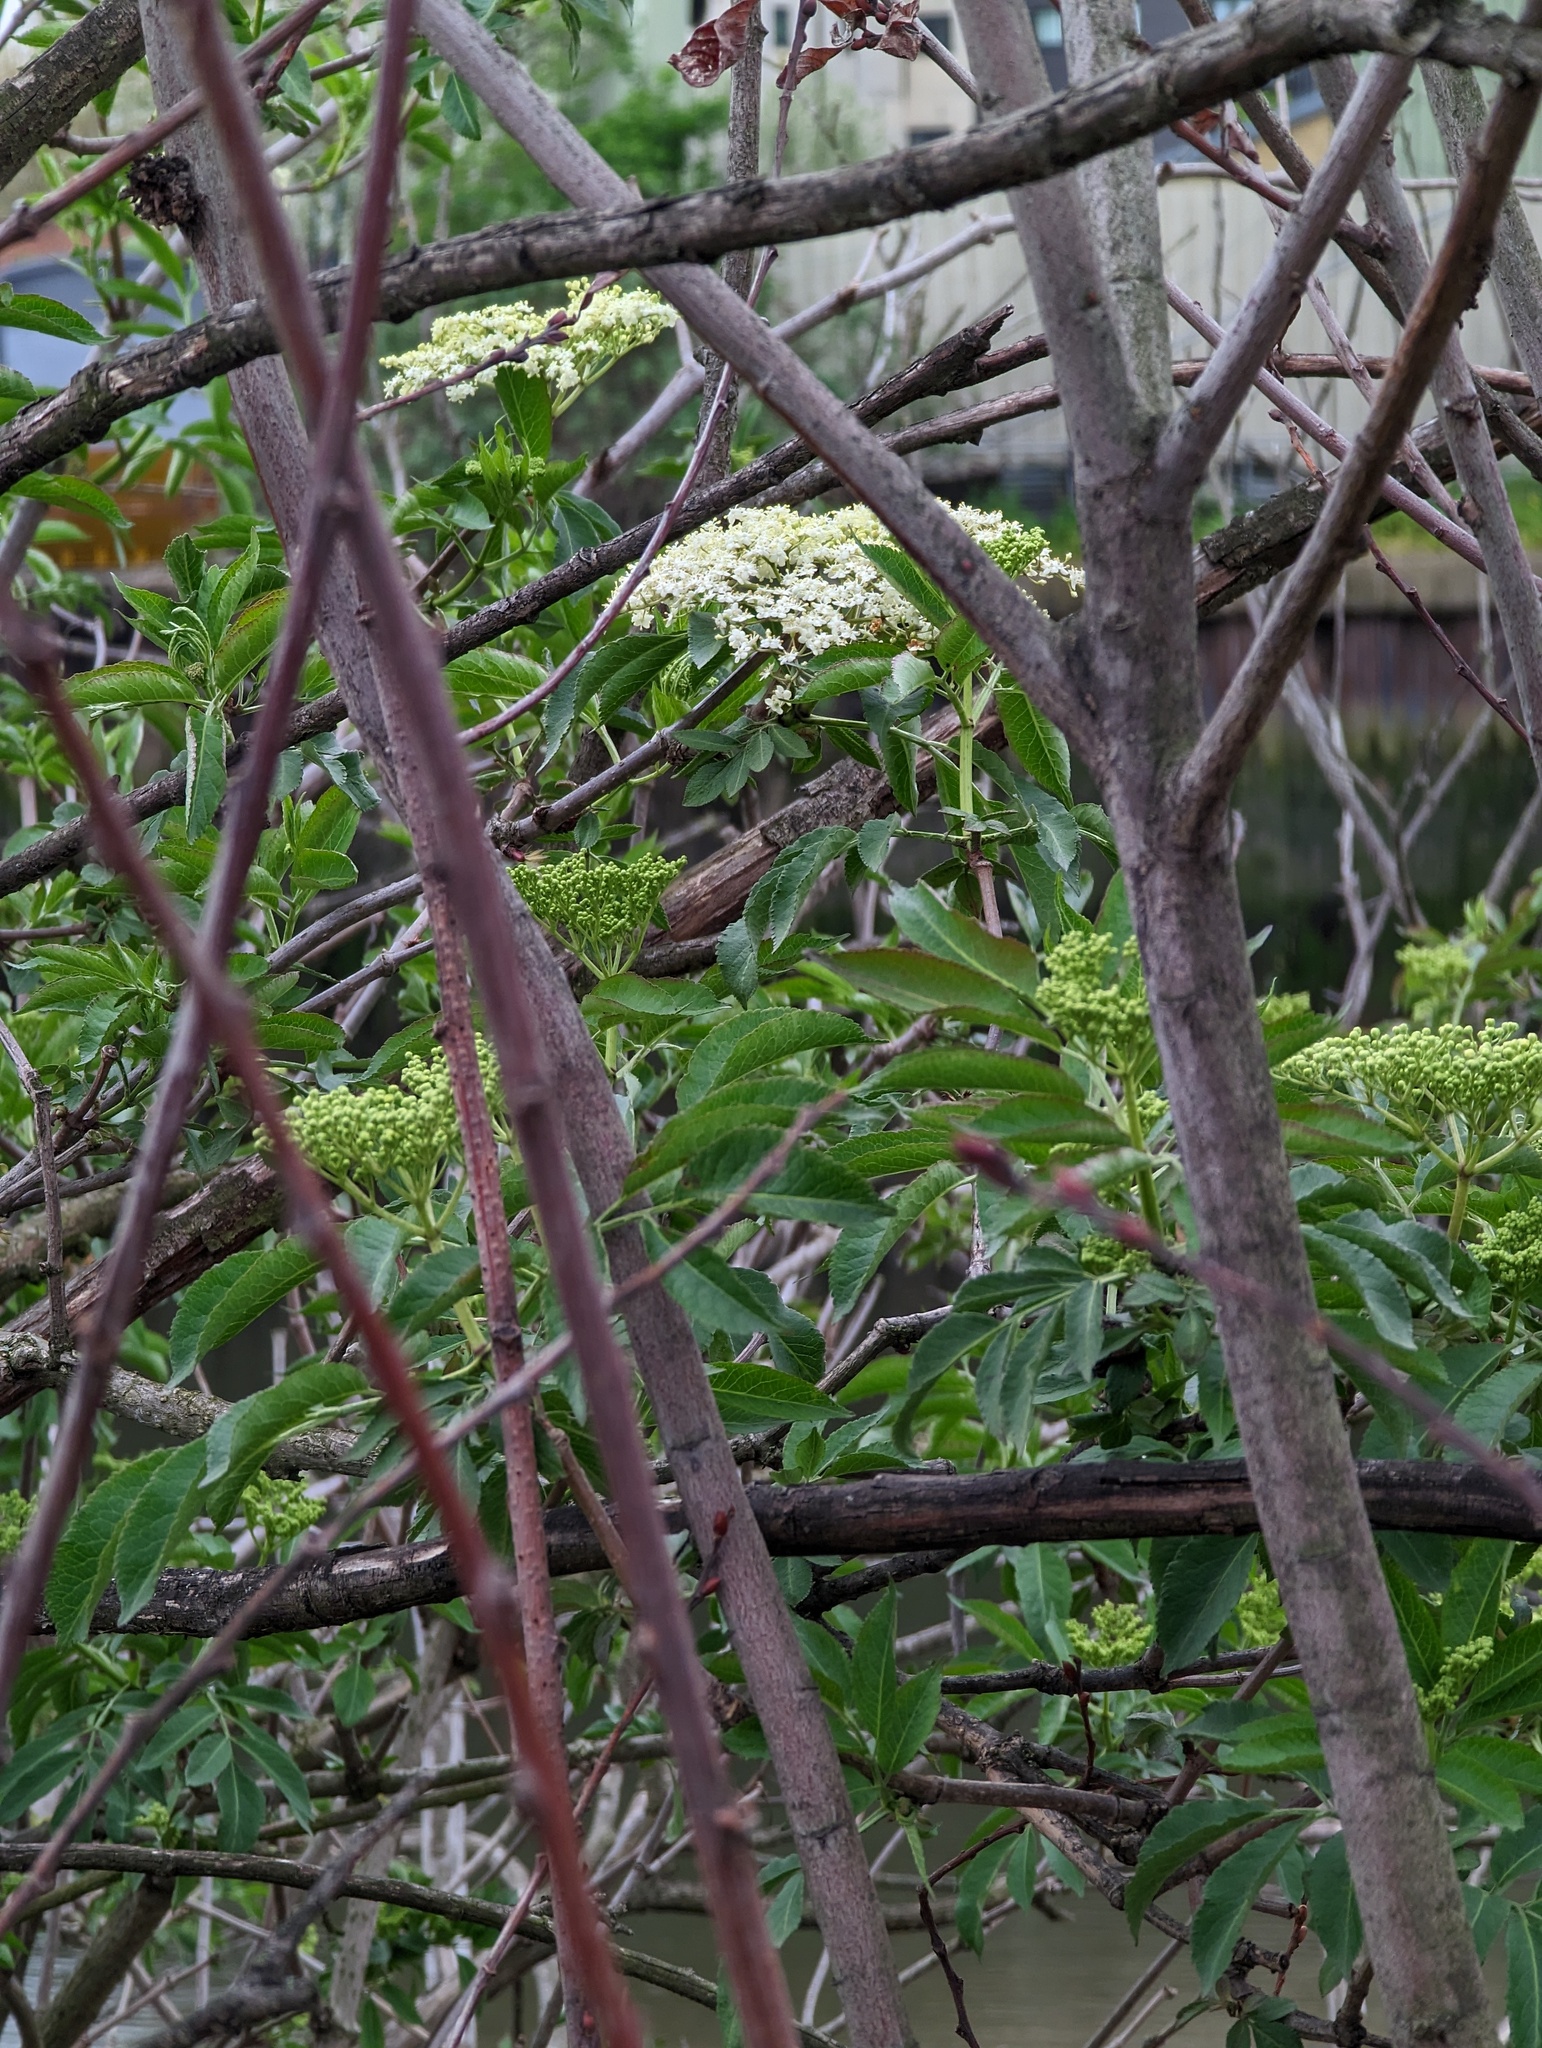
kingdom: Plantae
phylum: Tracheophyta
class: Magnoliopsida
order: Dipsacales
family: Viburnaceae
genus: Sambucus
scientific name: Sambucus nigra
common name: Elder
